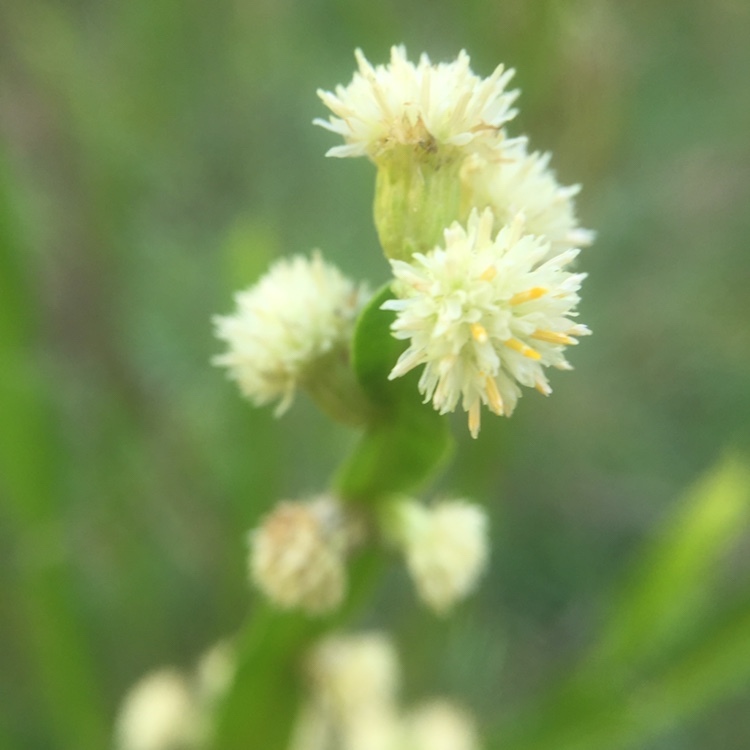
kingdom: Plantae
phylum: Tracheophyta
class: Magnoliopsida
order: Asterales
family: Asteraceae
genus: Baccharis
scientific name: Baccharis trimera
